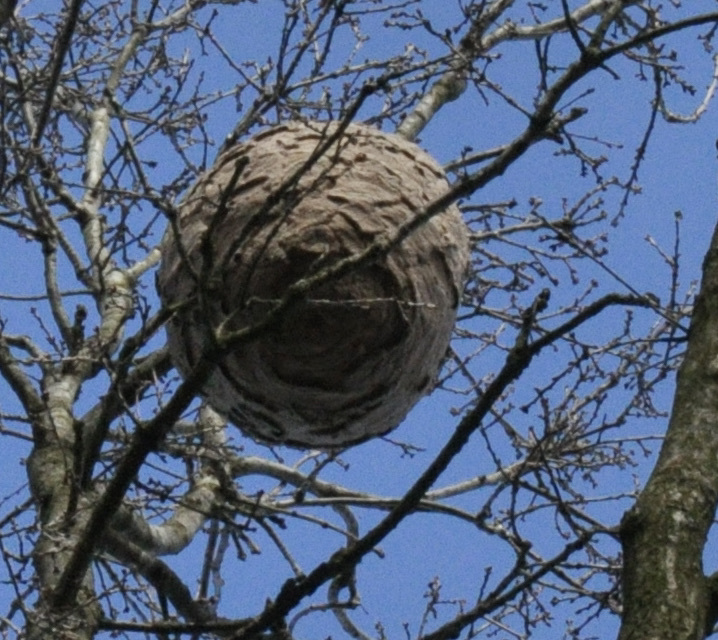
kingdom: Animalia
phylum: Arthropoda
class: Insecta
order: Hymenoptera
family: Vespidae
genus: Vespa
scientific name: Vespa velutina
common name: Asian hornet
